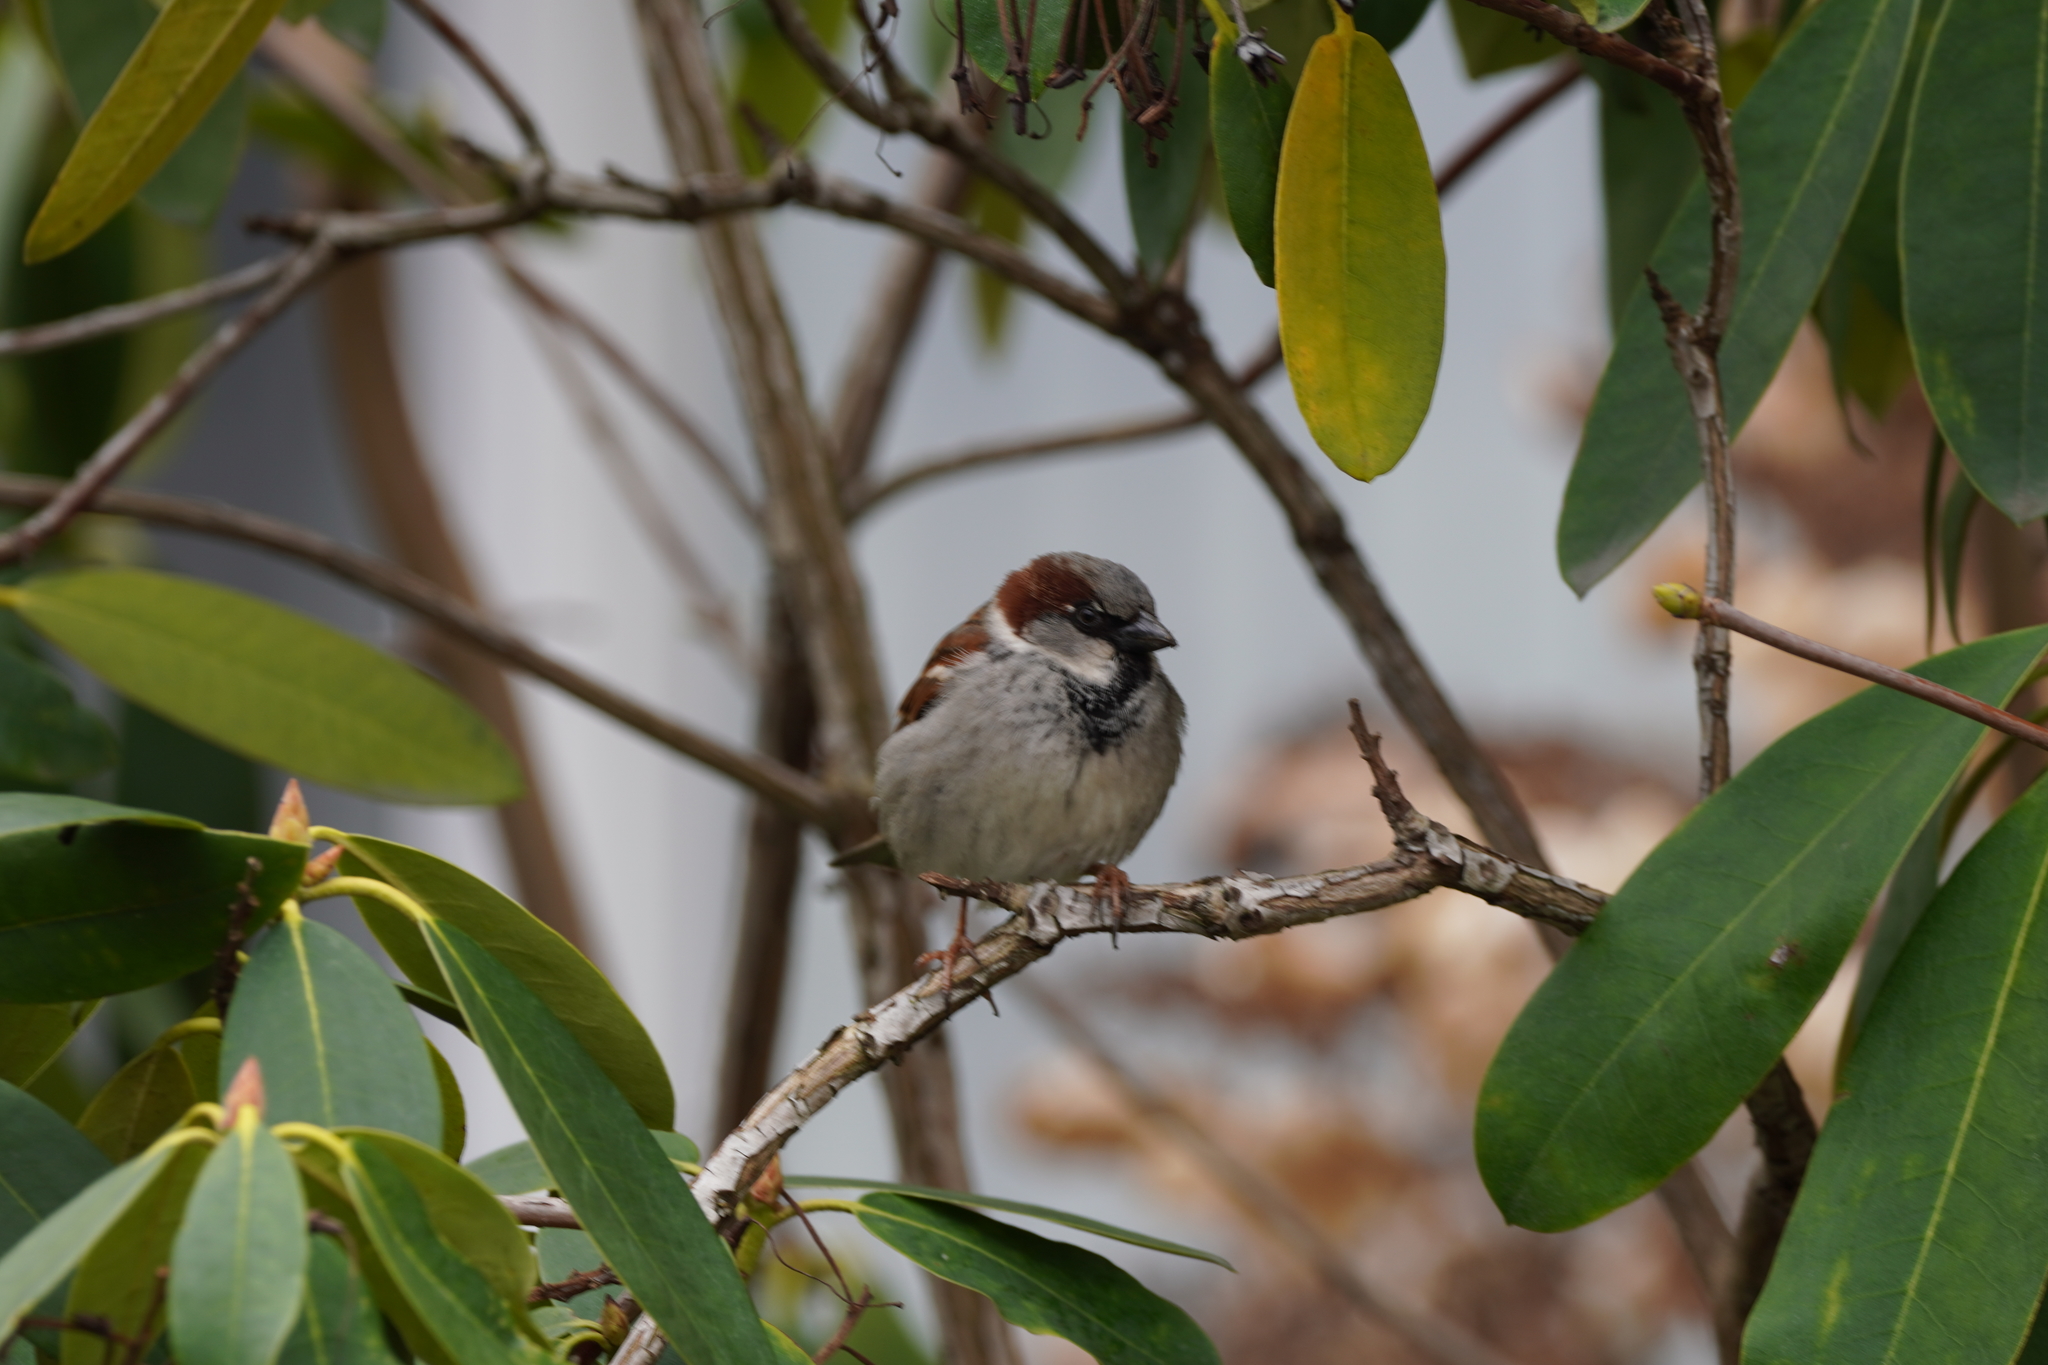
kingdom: Animalia
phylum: Chordata
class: Aves
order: Passeriformes
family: Passeridae
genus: Passer
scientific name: Passer domesticus
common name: House sparrow
